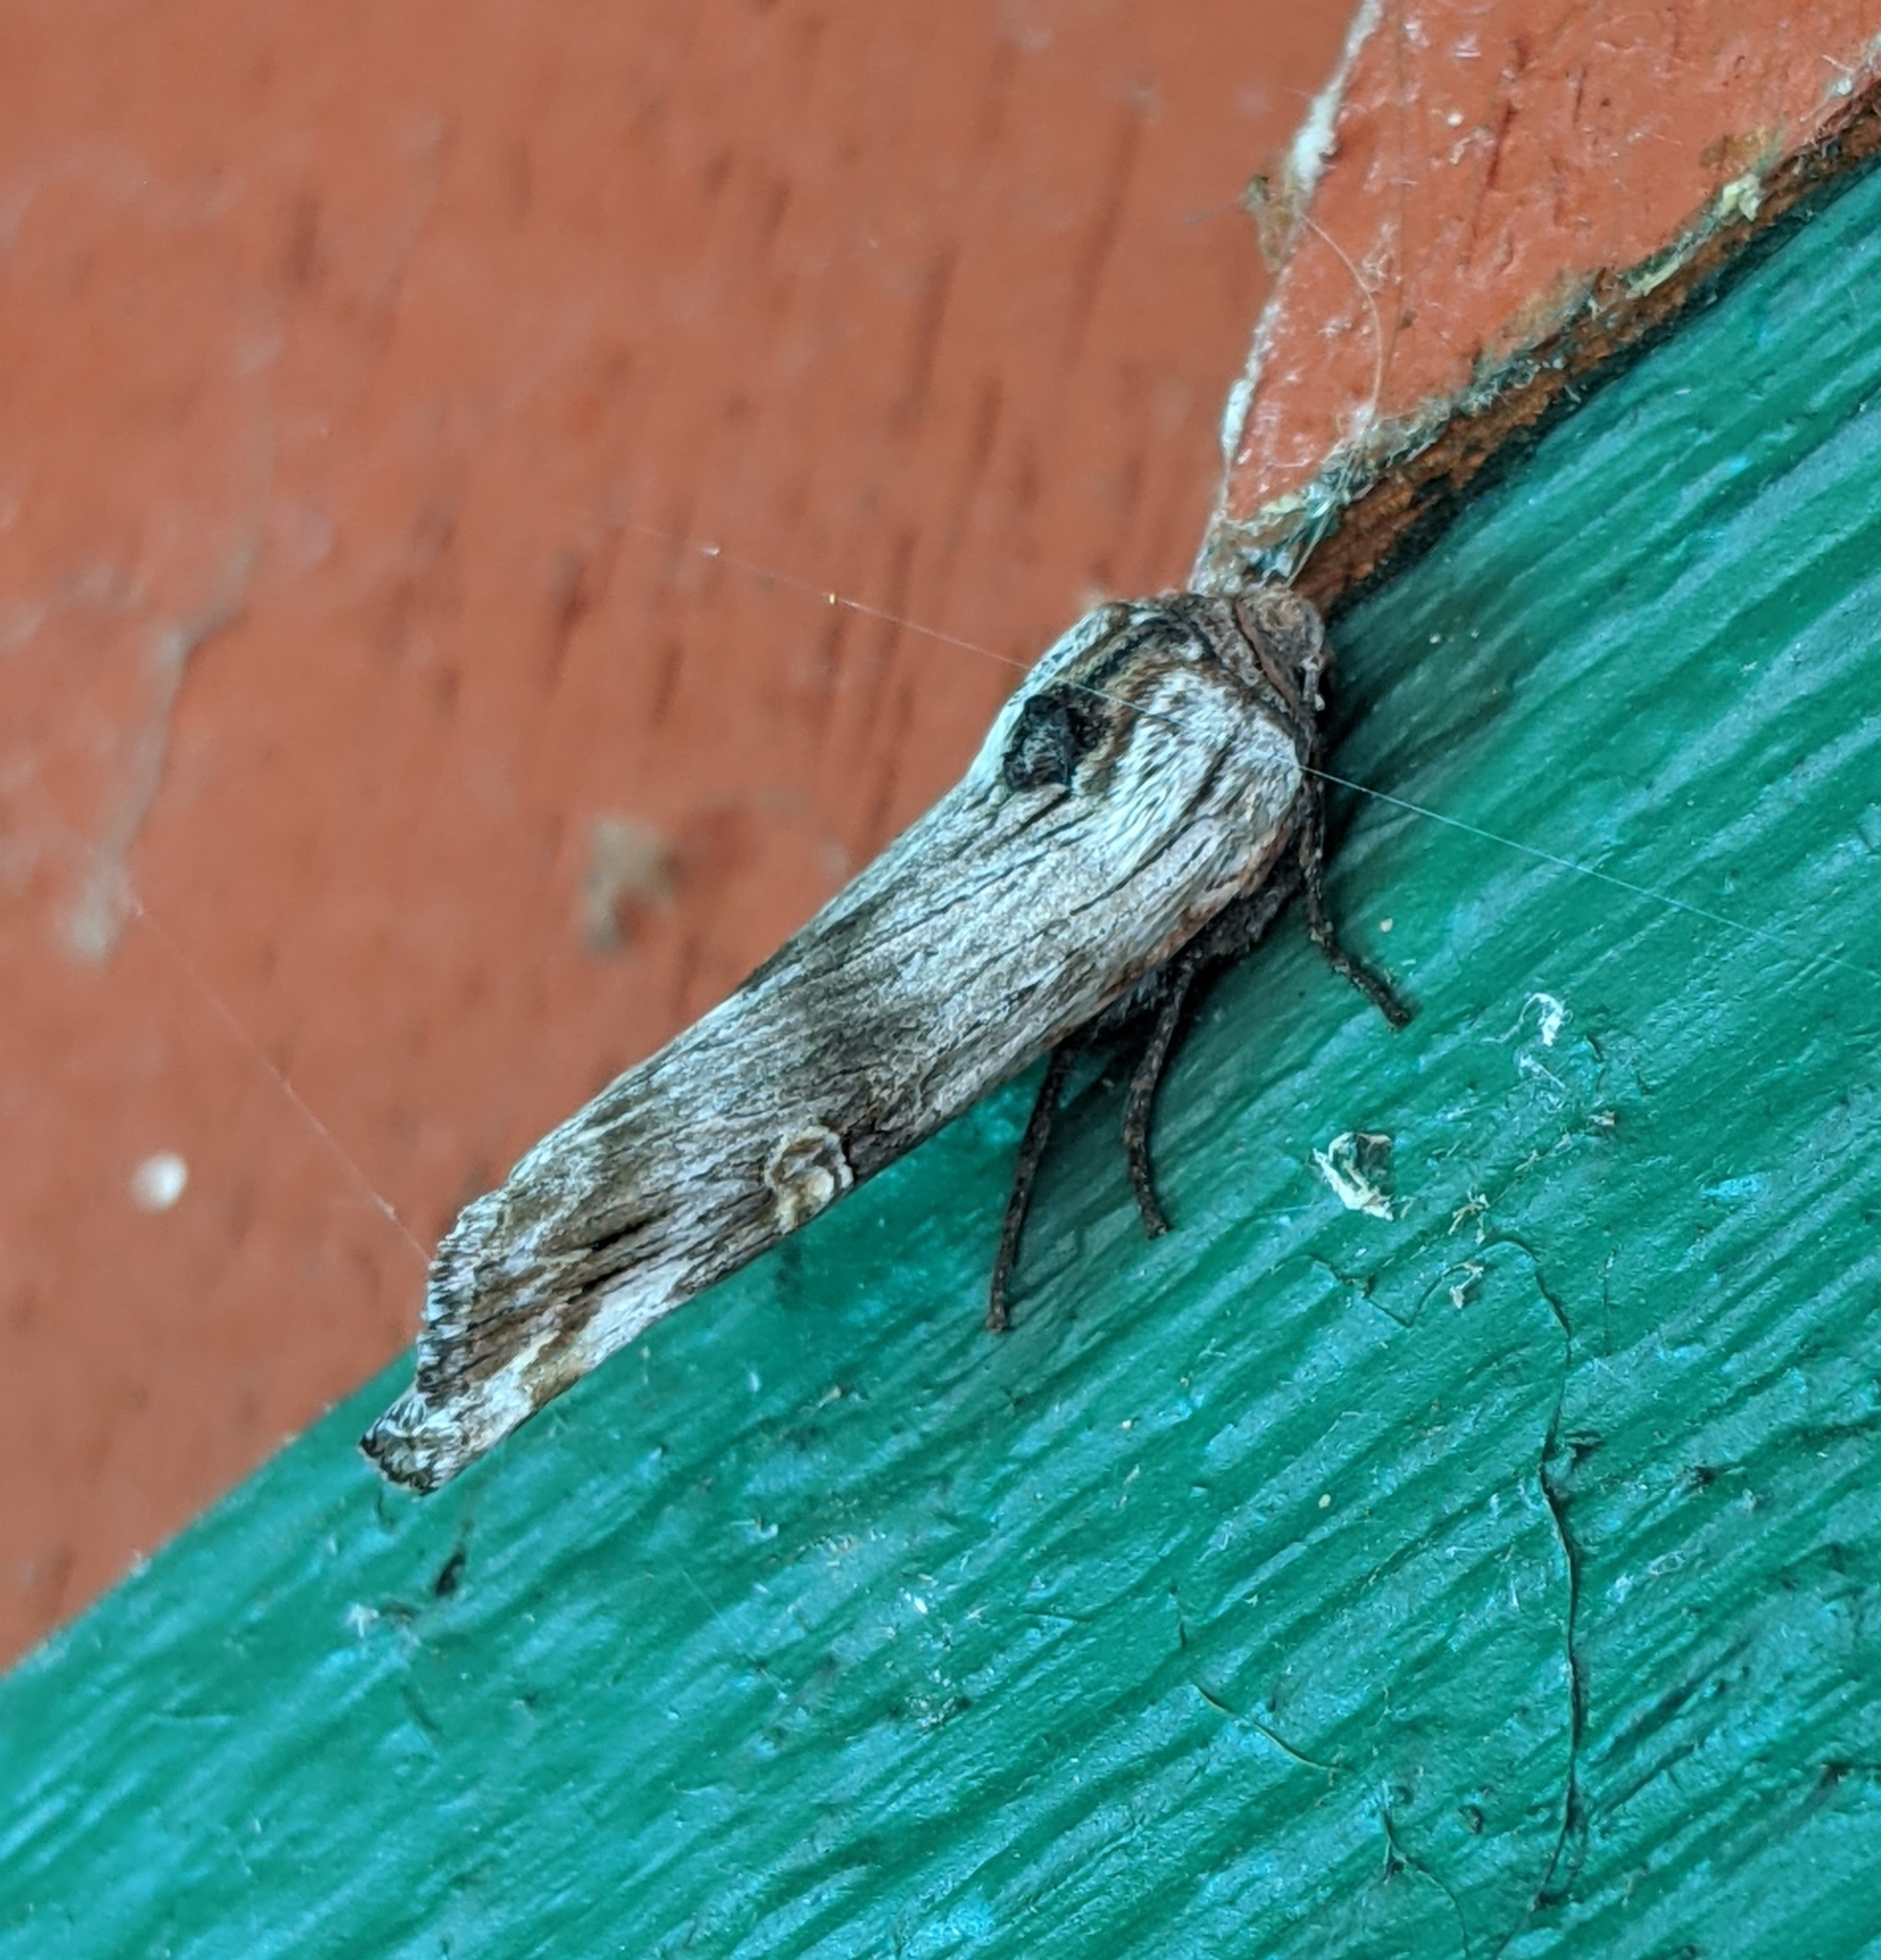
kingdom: Animalia
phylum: Arthropoda
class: Insecta
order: Lepidoptera
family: Noctuidae
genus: Xylena
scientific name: Xylena germana
